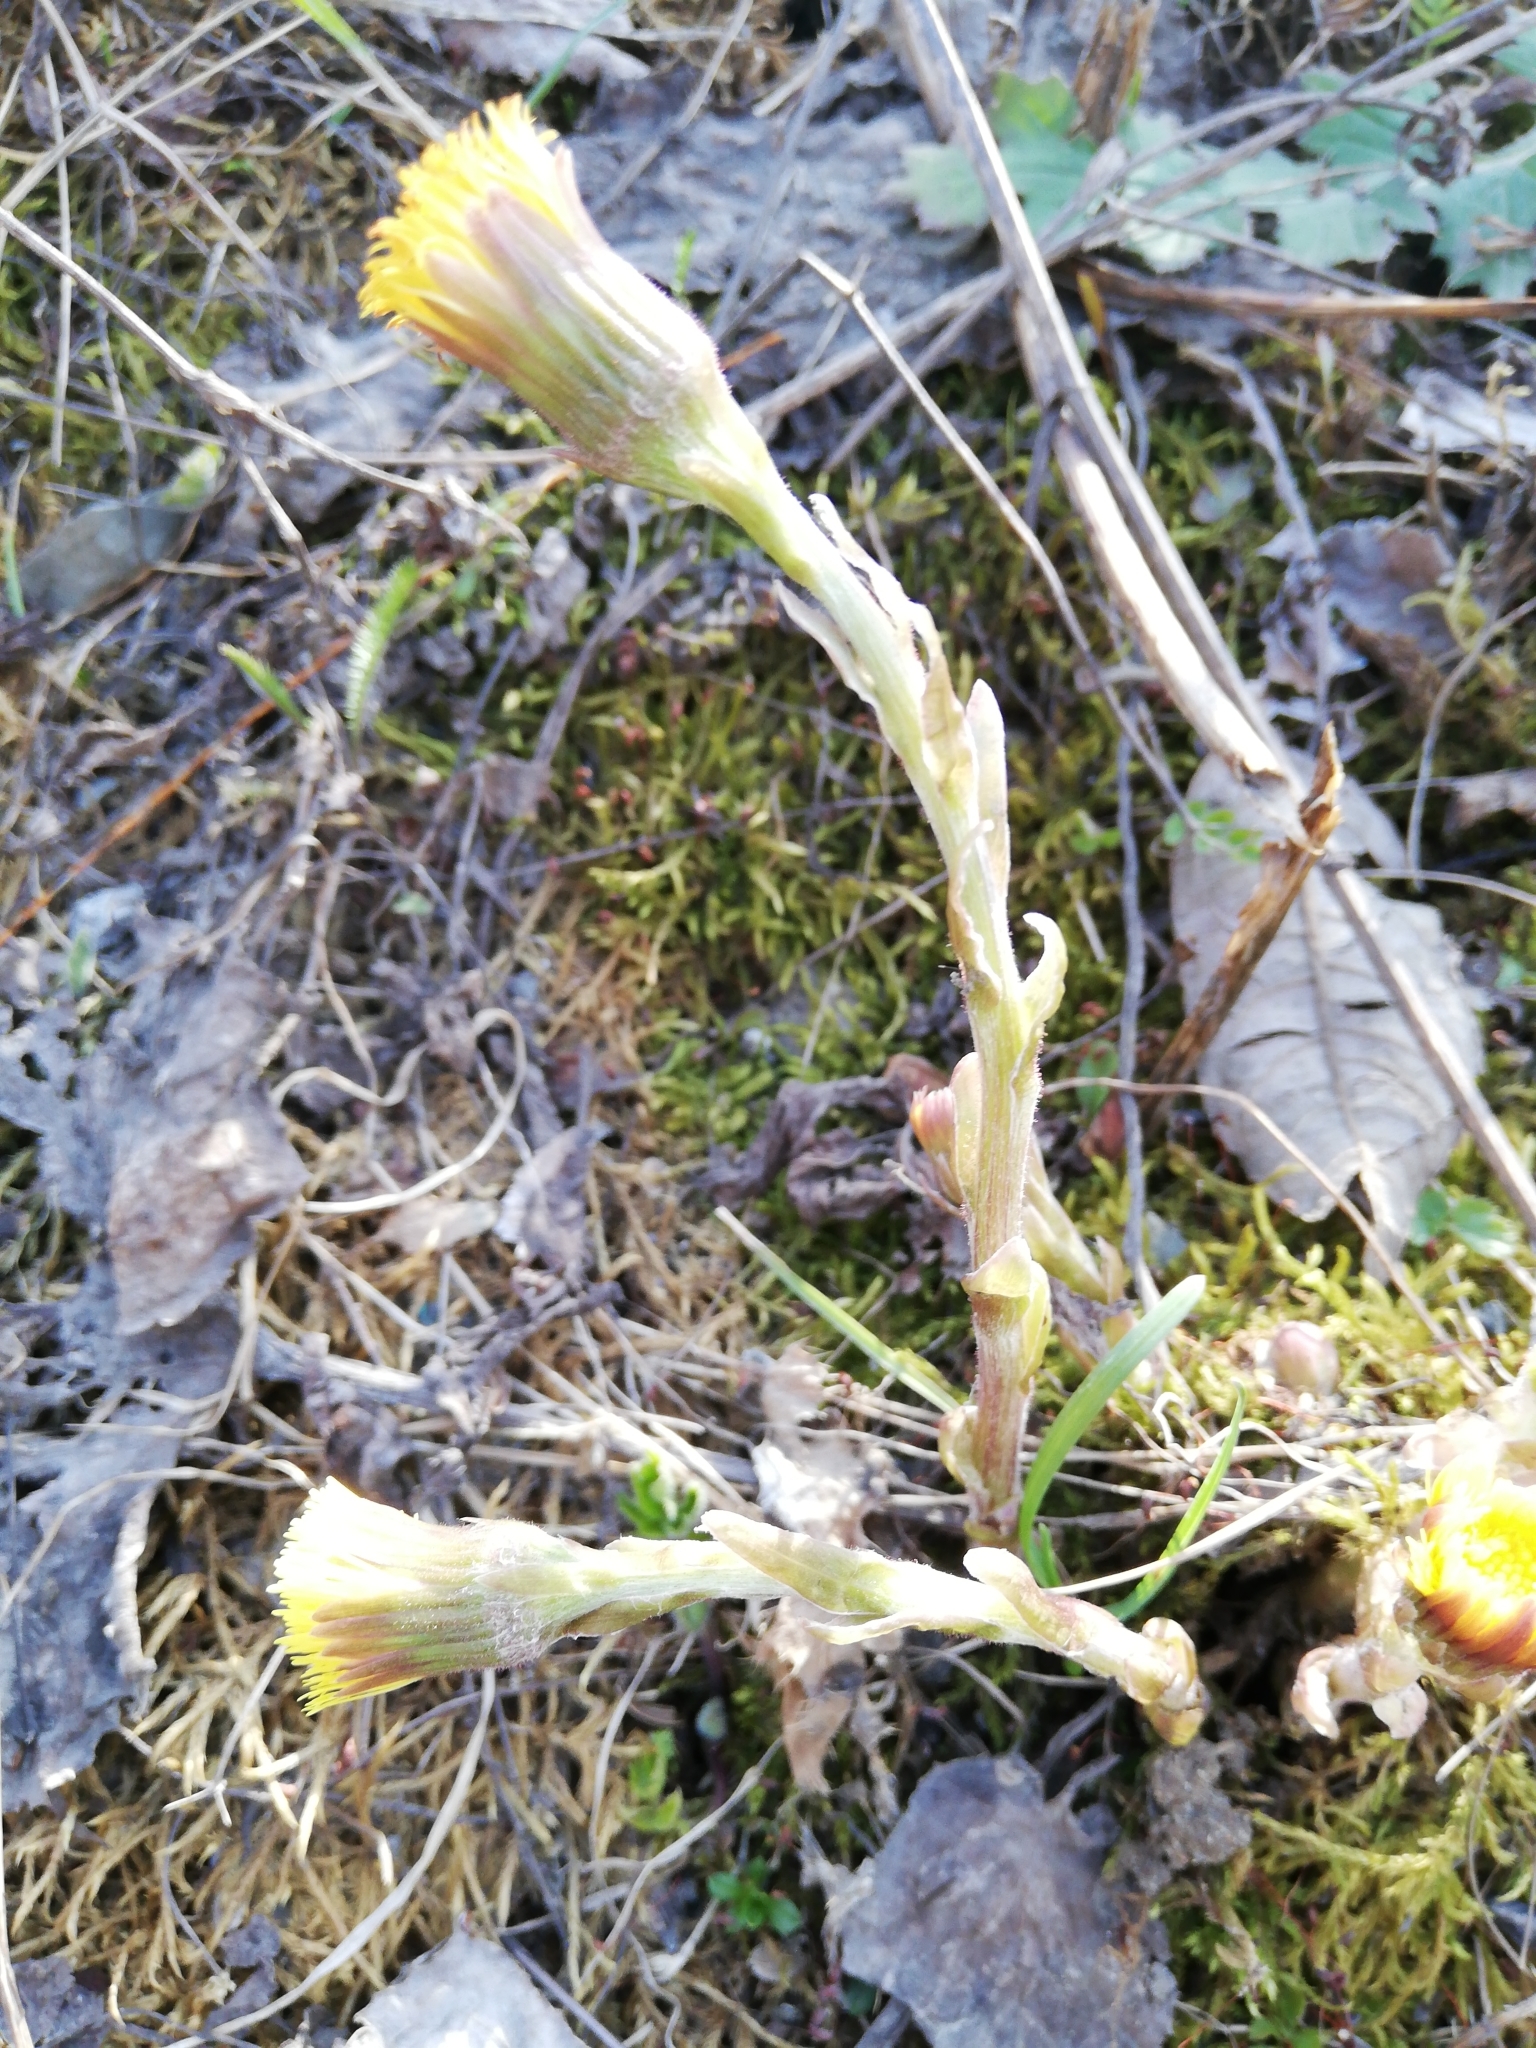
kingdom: Plantae
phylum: Tracheophyta
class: Magnoliopsida
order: Asterales
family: Asteraceae
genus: Tussilago
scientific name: Tussilago farfara
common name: Coltsfoot
